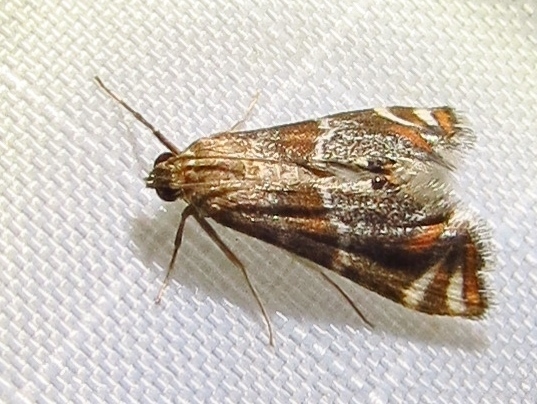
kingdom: Animalia
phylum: Arthropoda
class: Insecta
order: Lepidoptera
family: Crambidae
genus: Petrophila
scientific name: Petrophila jaliscalis
